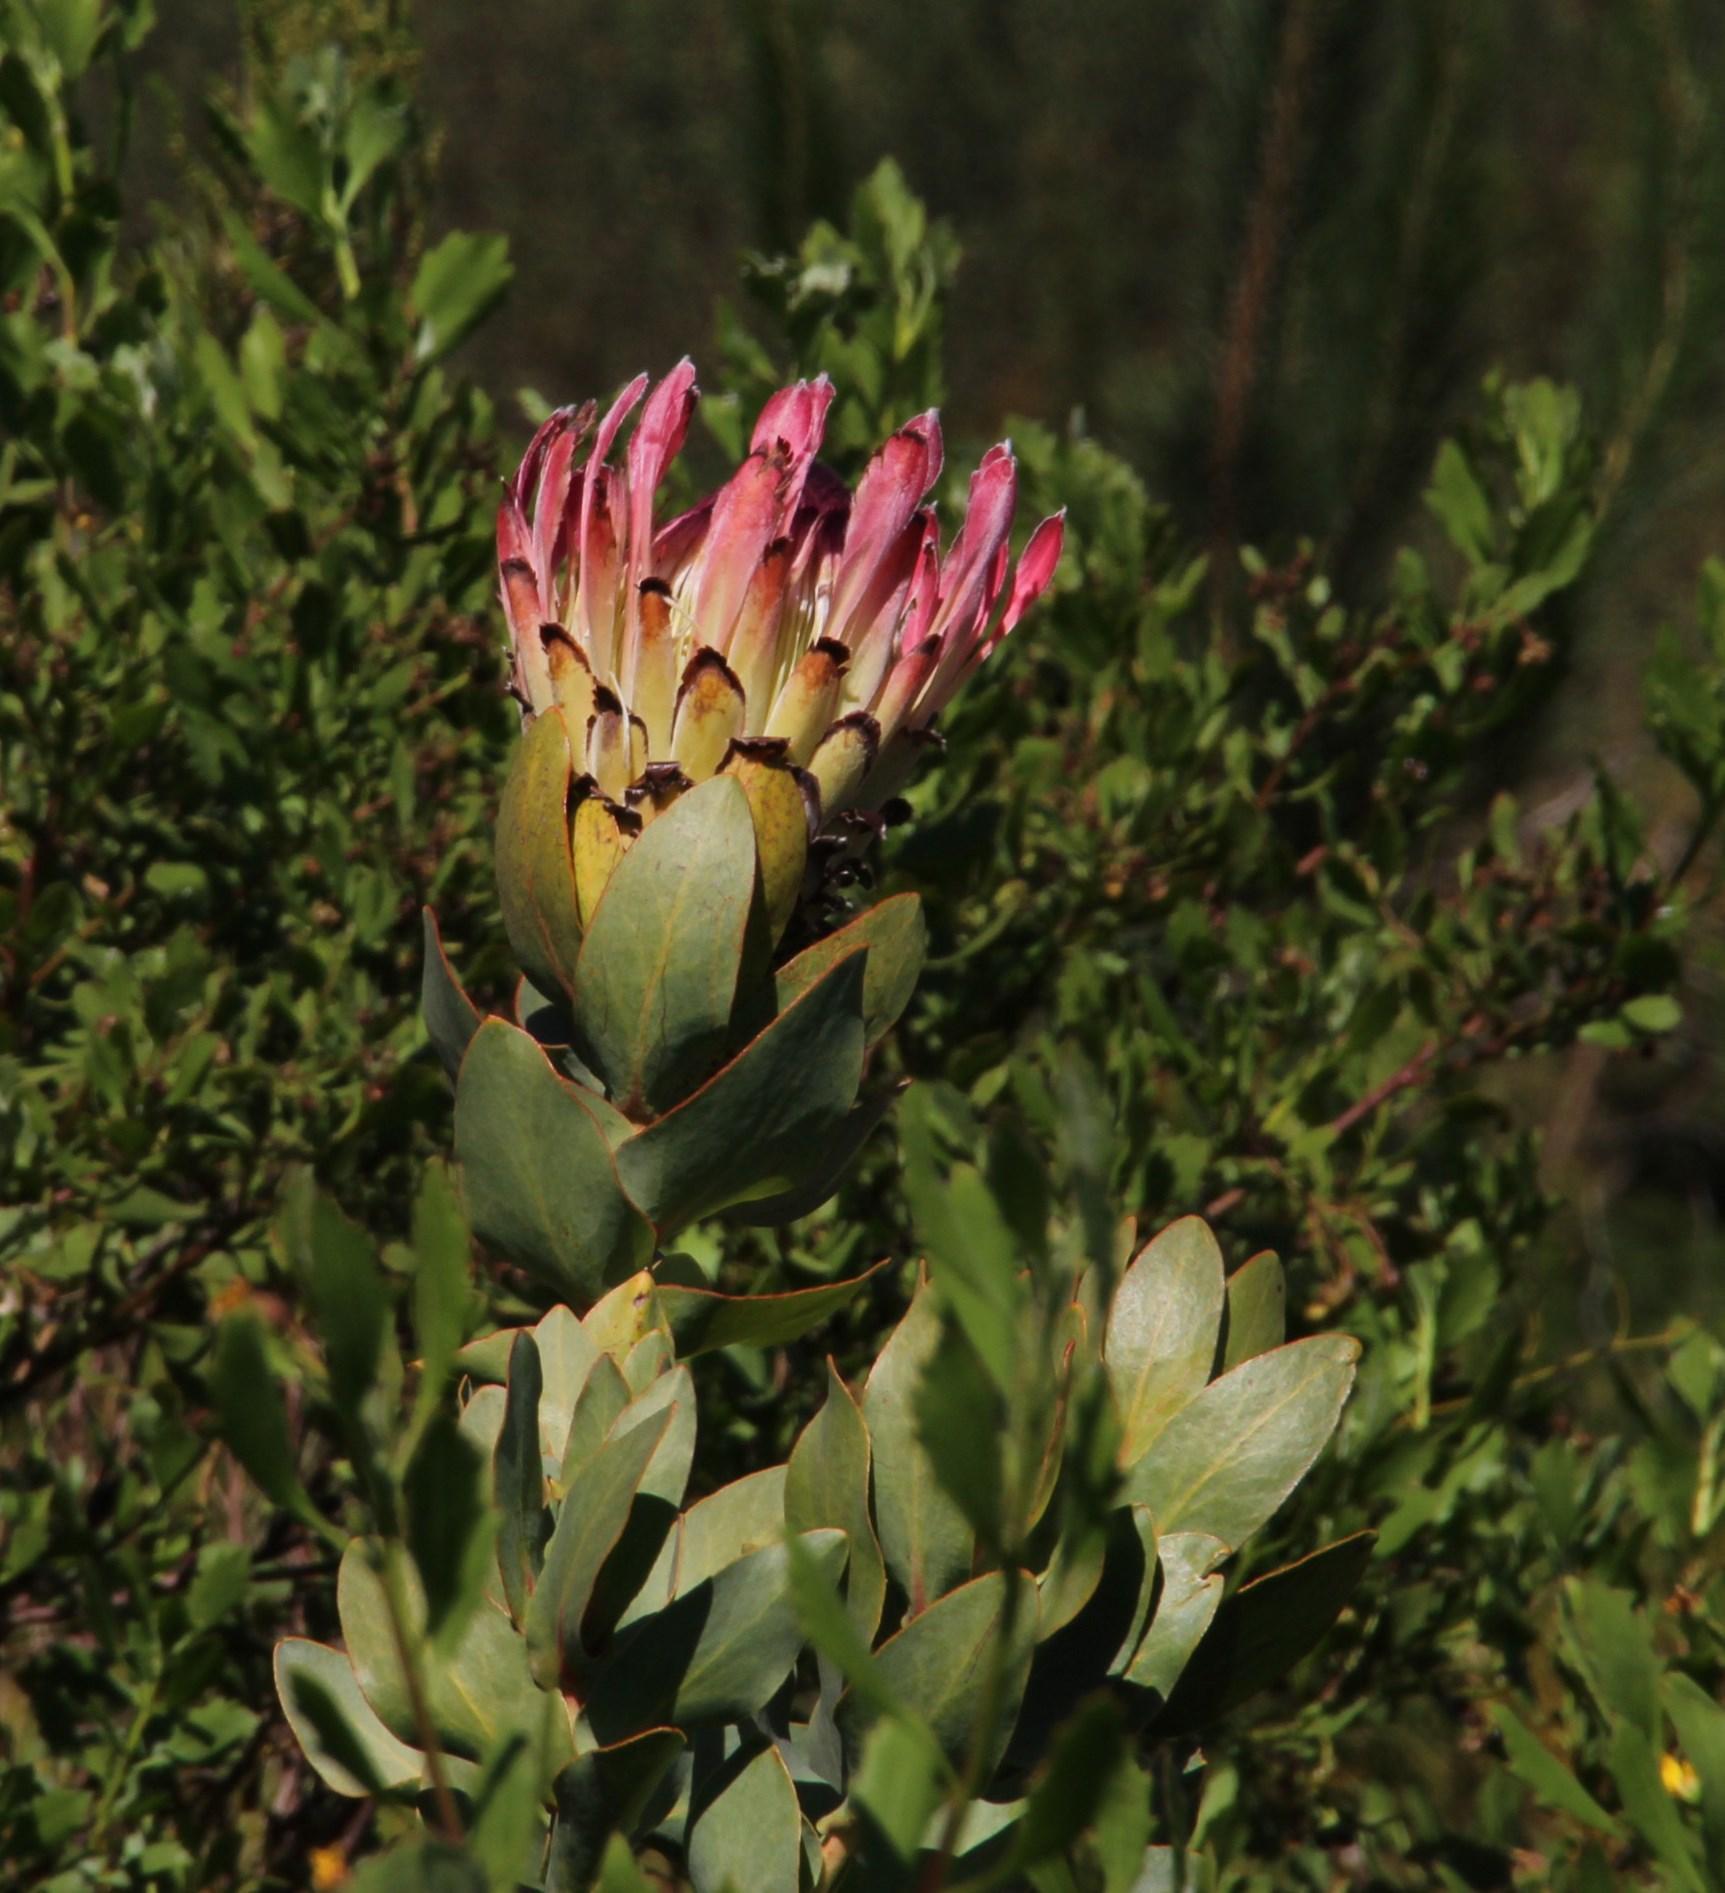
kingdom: Plantae
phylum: Tracheophyta
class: Magnoliopsida
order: Proteales
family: Proteaceae
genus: Protea
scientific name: Protea eximia
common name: Broad-leaved sugarbush
